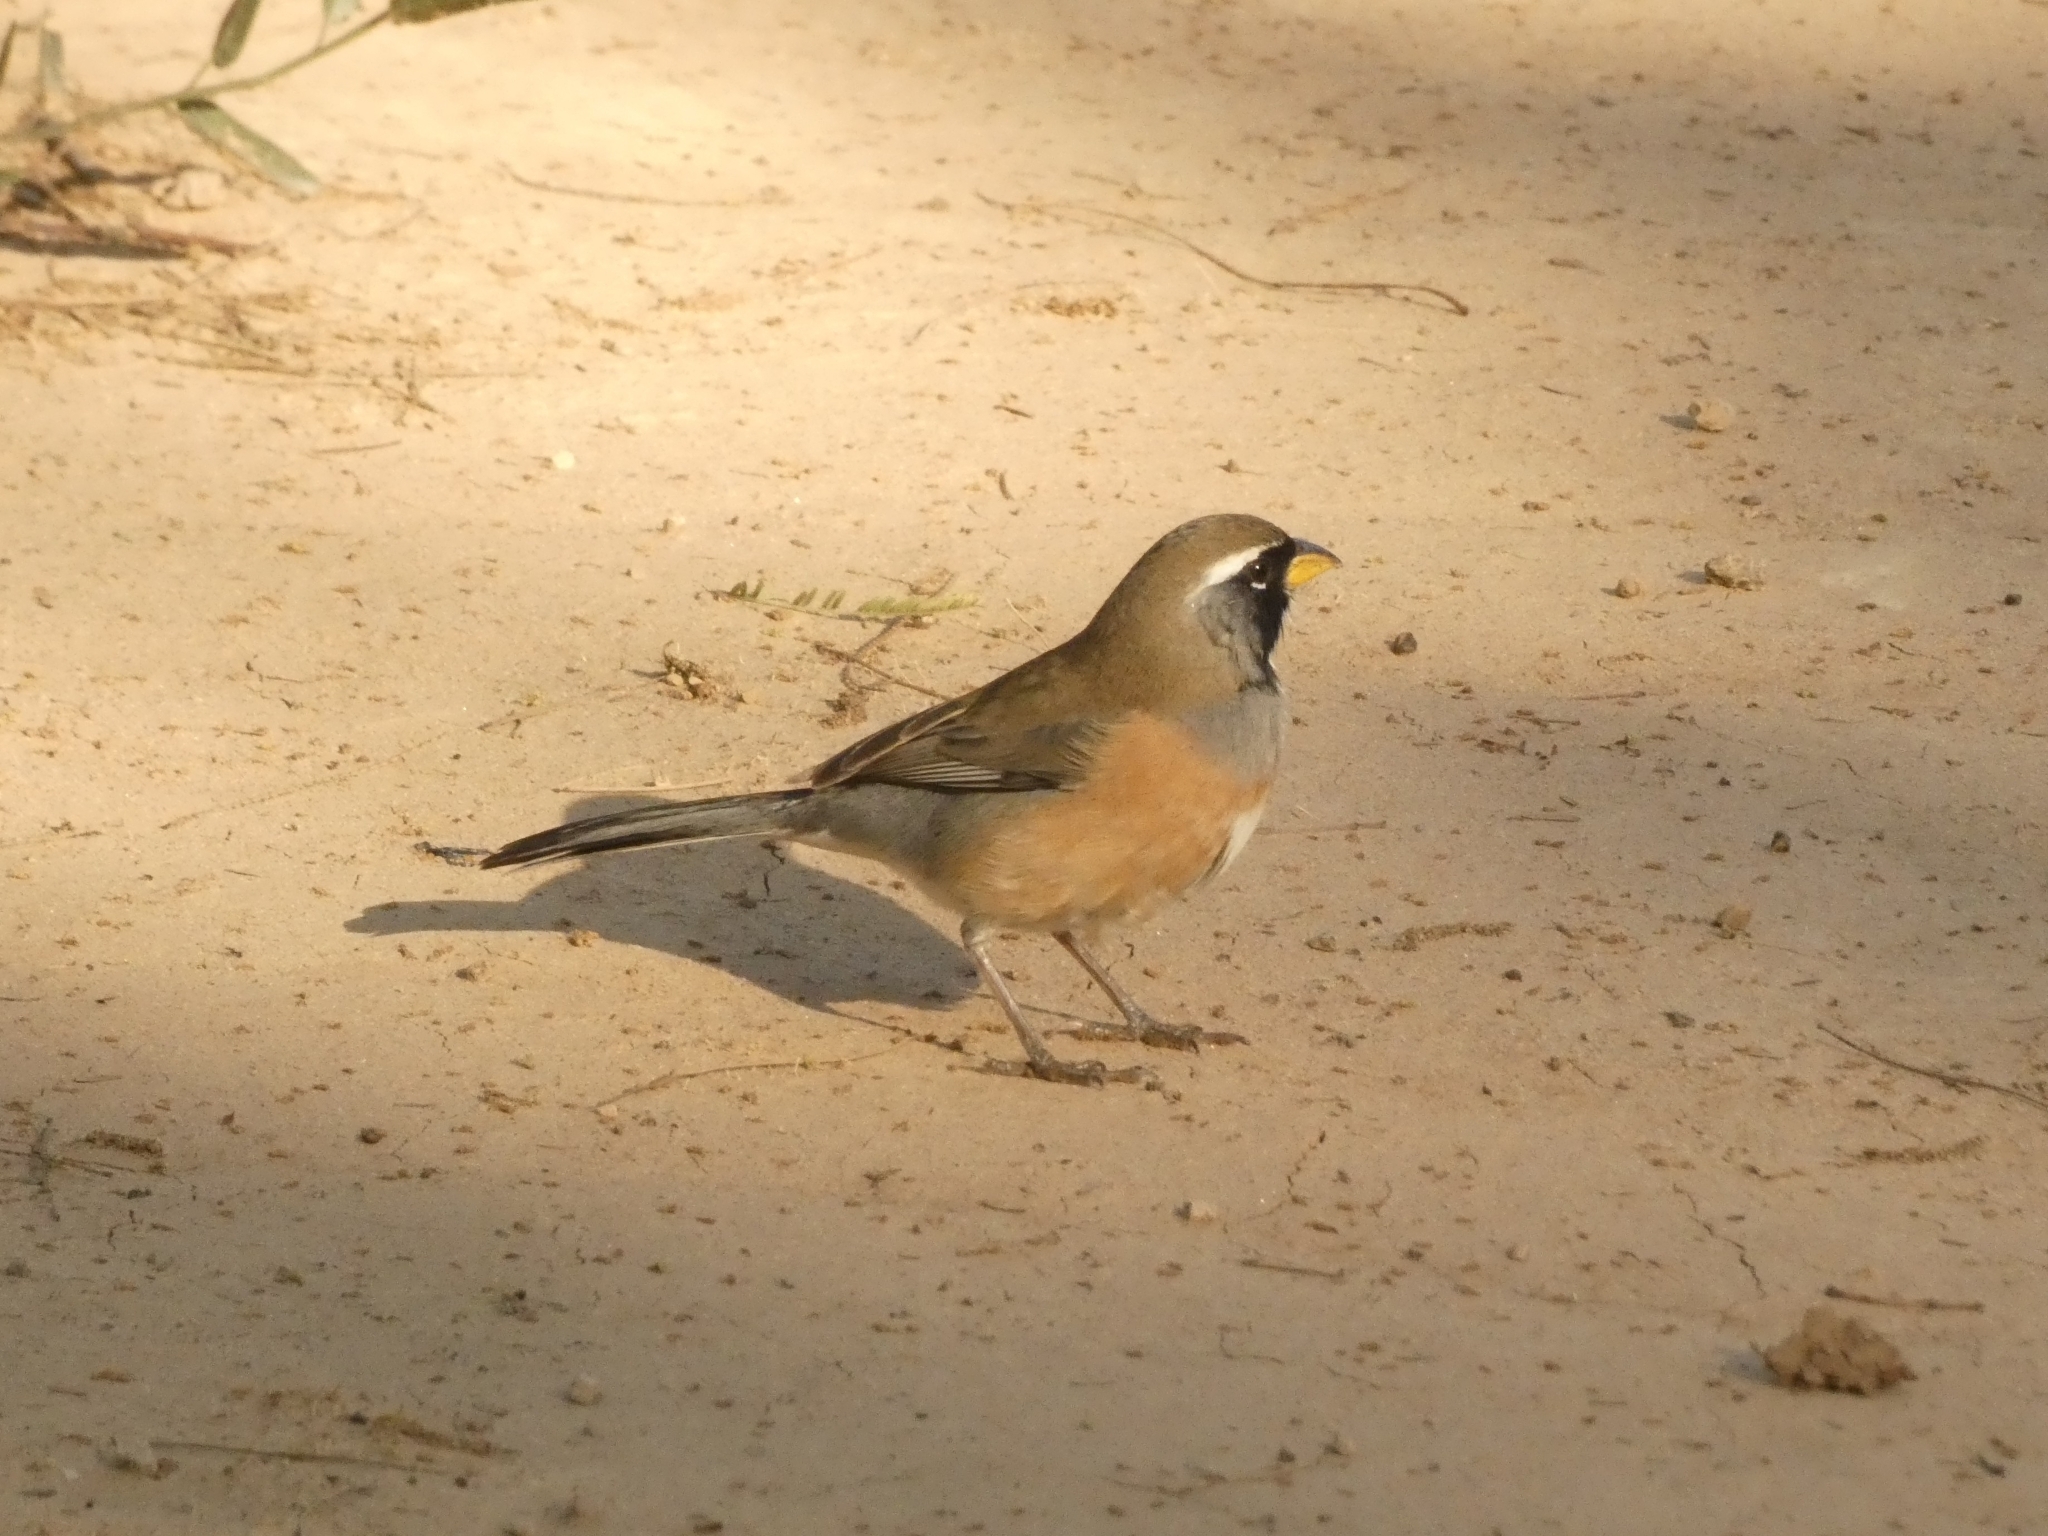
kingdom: Animalia
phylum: Chordata
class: Aves
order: Passeriformes
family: Thraupidae
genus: Saltatricula
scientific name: Saltatricula multicolor
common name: Many-colored chaco finch
